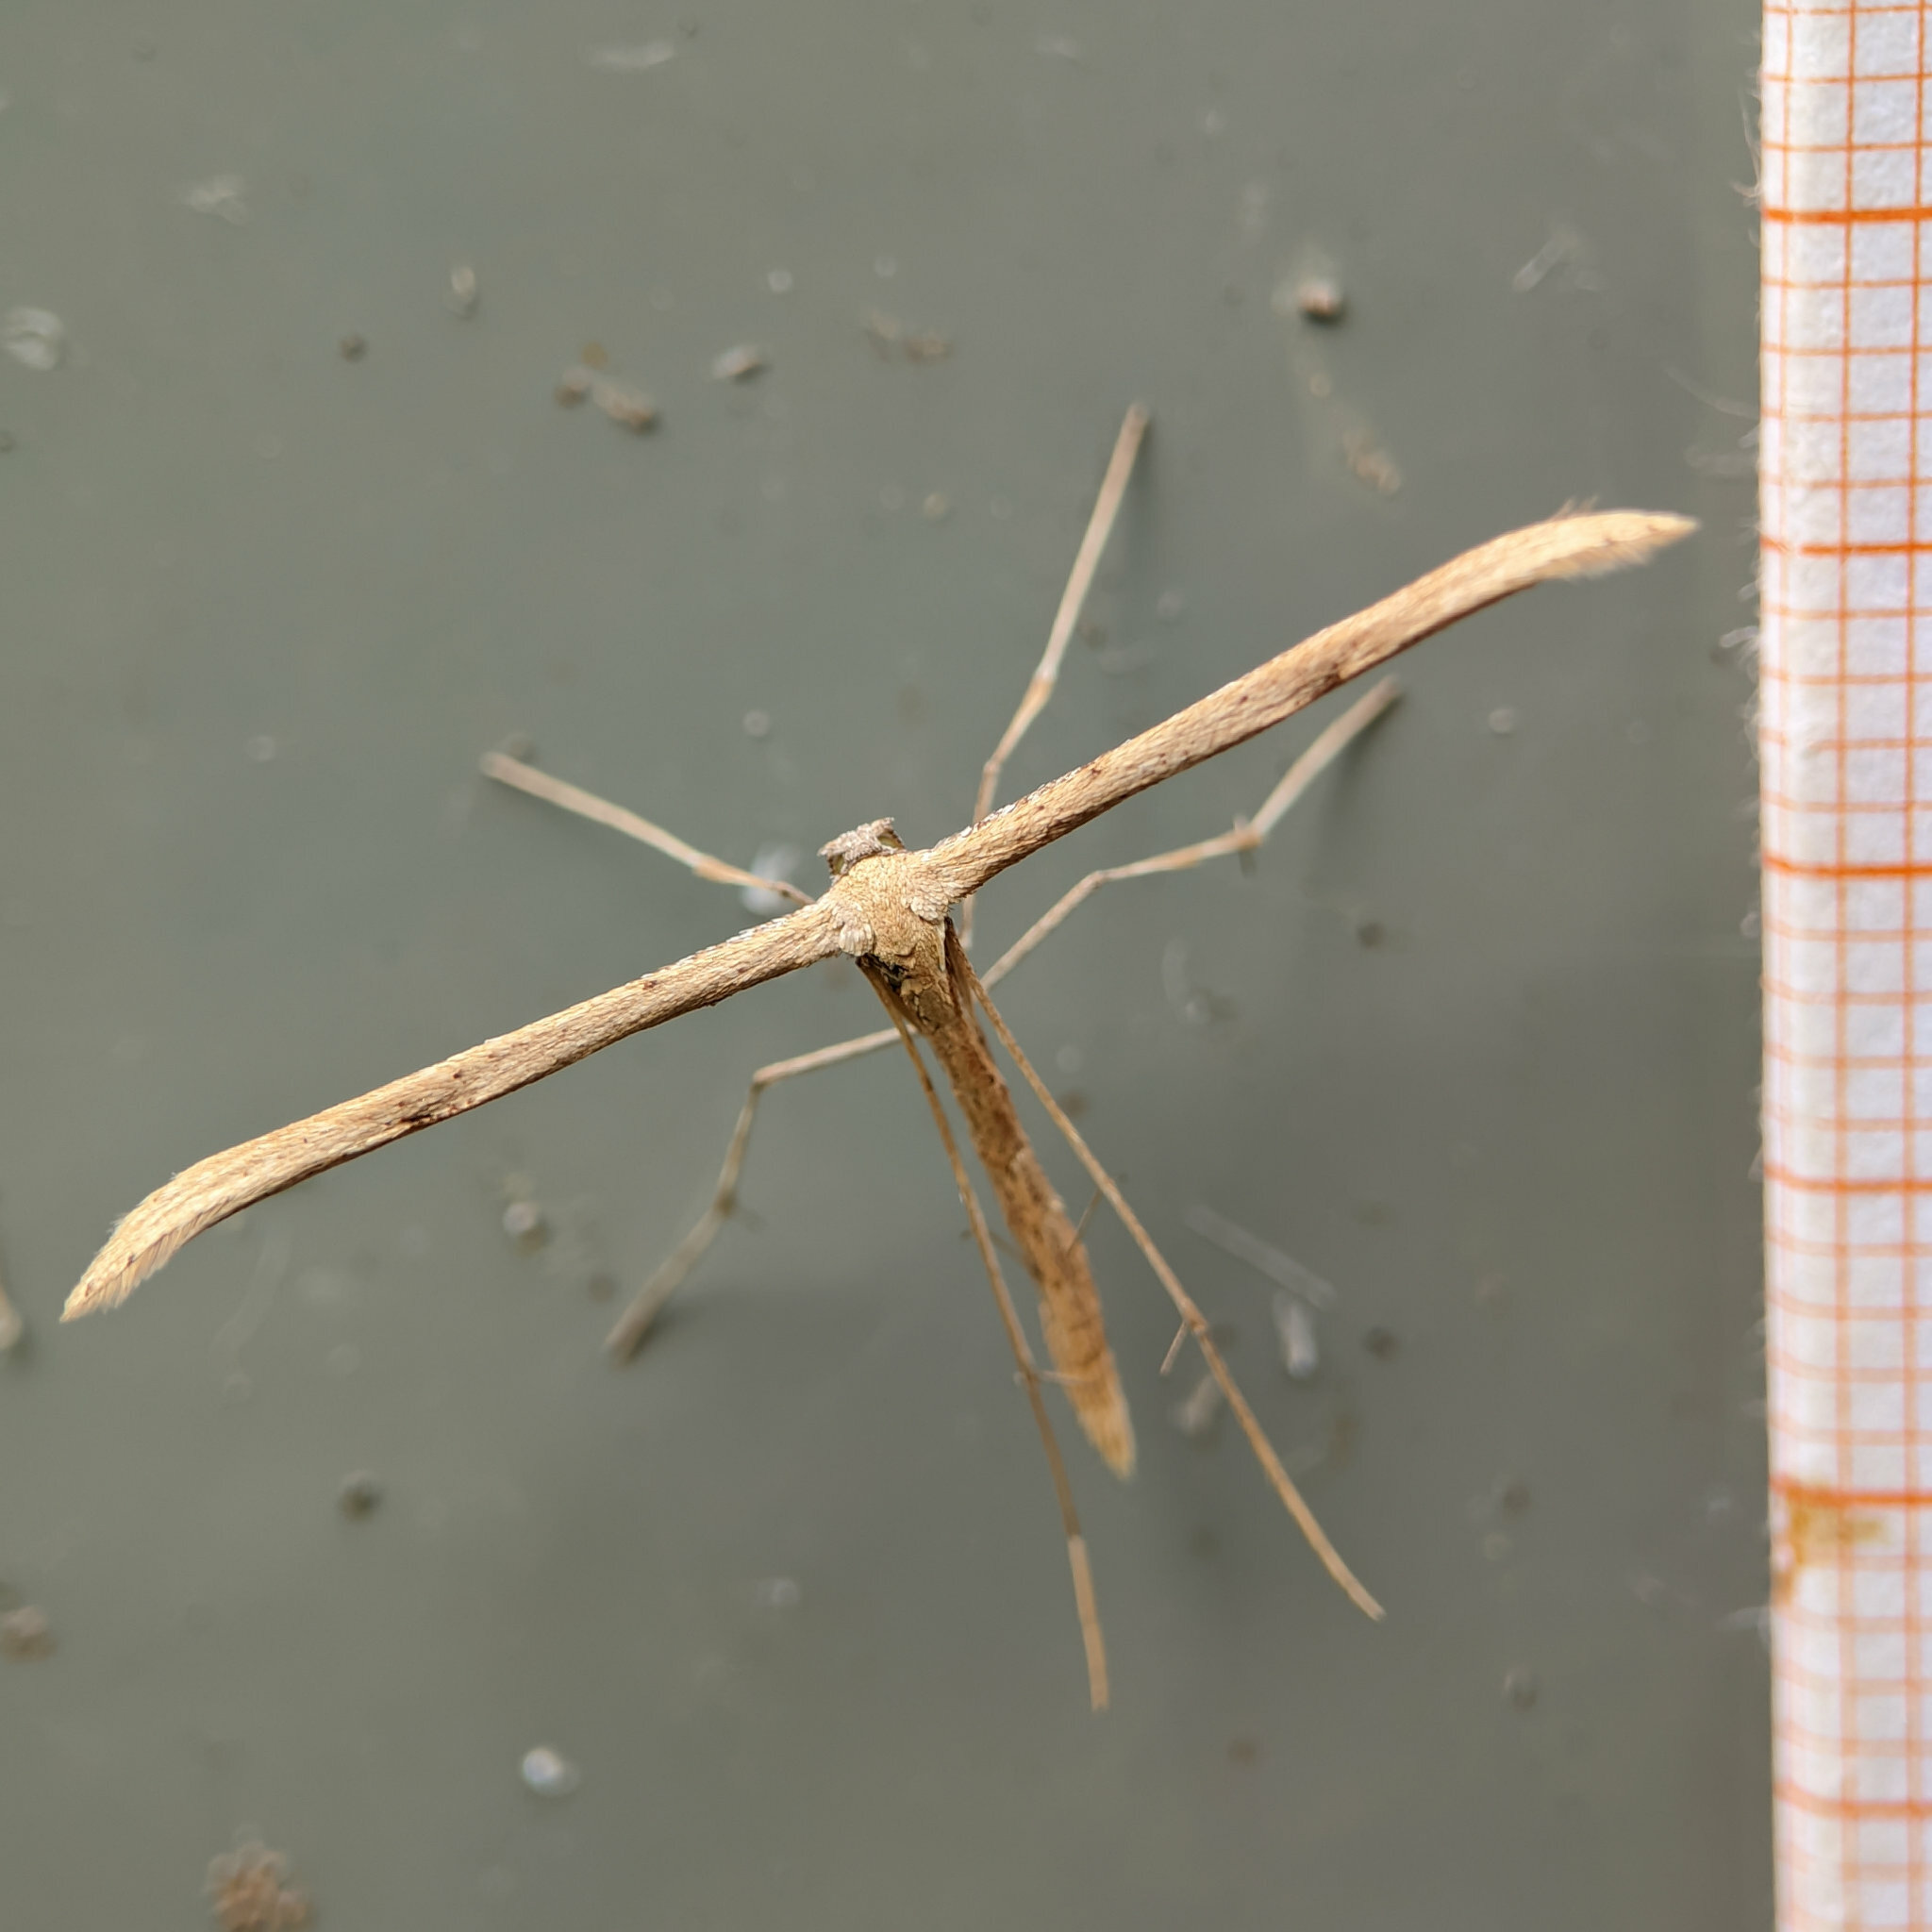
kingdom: Animalia
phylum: Arthropoda
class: Insecta
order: Lepidoptera
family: Pterophoridae
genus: Emmelina
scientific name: Emmelina monodactyla
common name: Common plume
